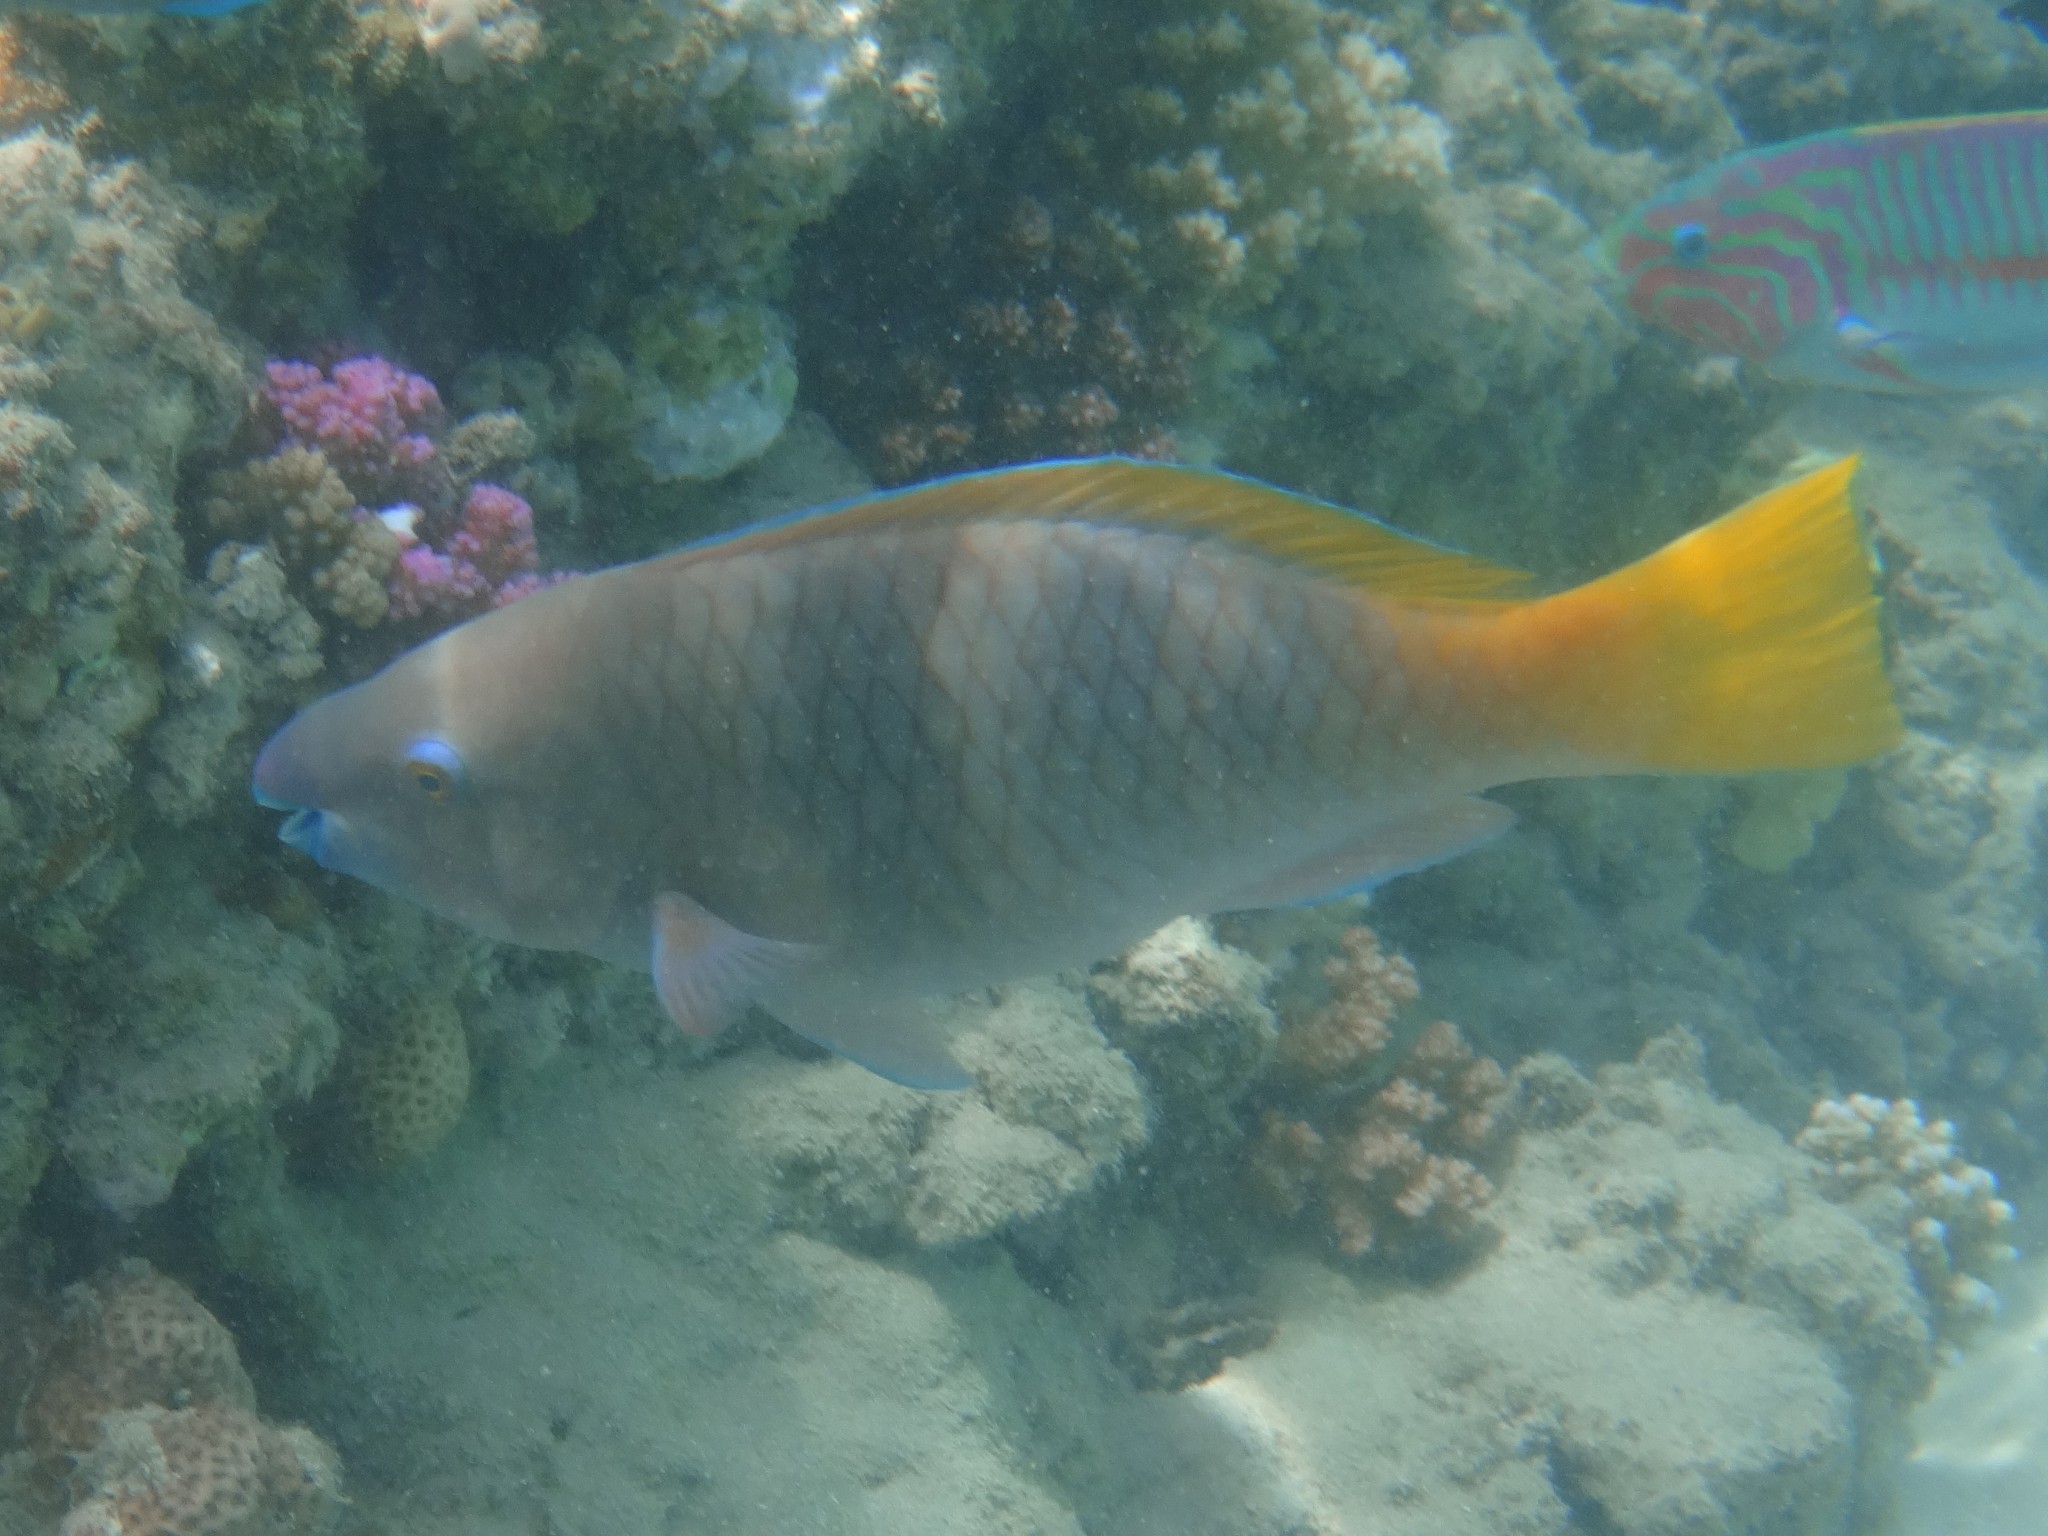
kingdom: Animalia
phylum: Chordata
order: Perciformes
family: Scaridae
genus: Scarus
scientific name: Scarus ferrugineus
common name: Rusty parrotfish
